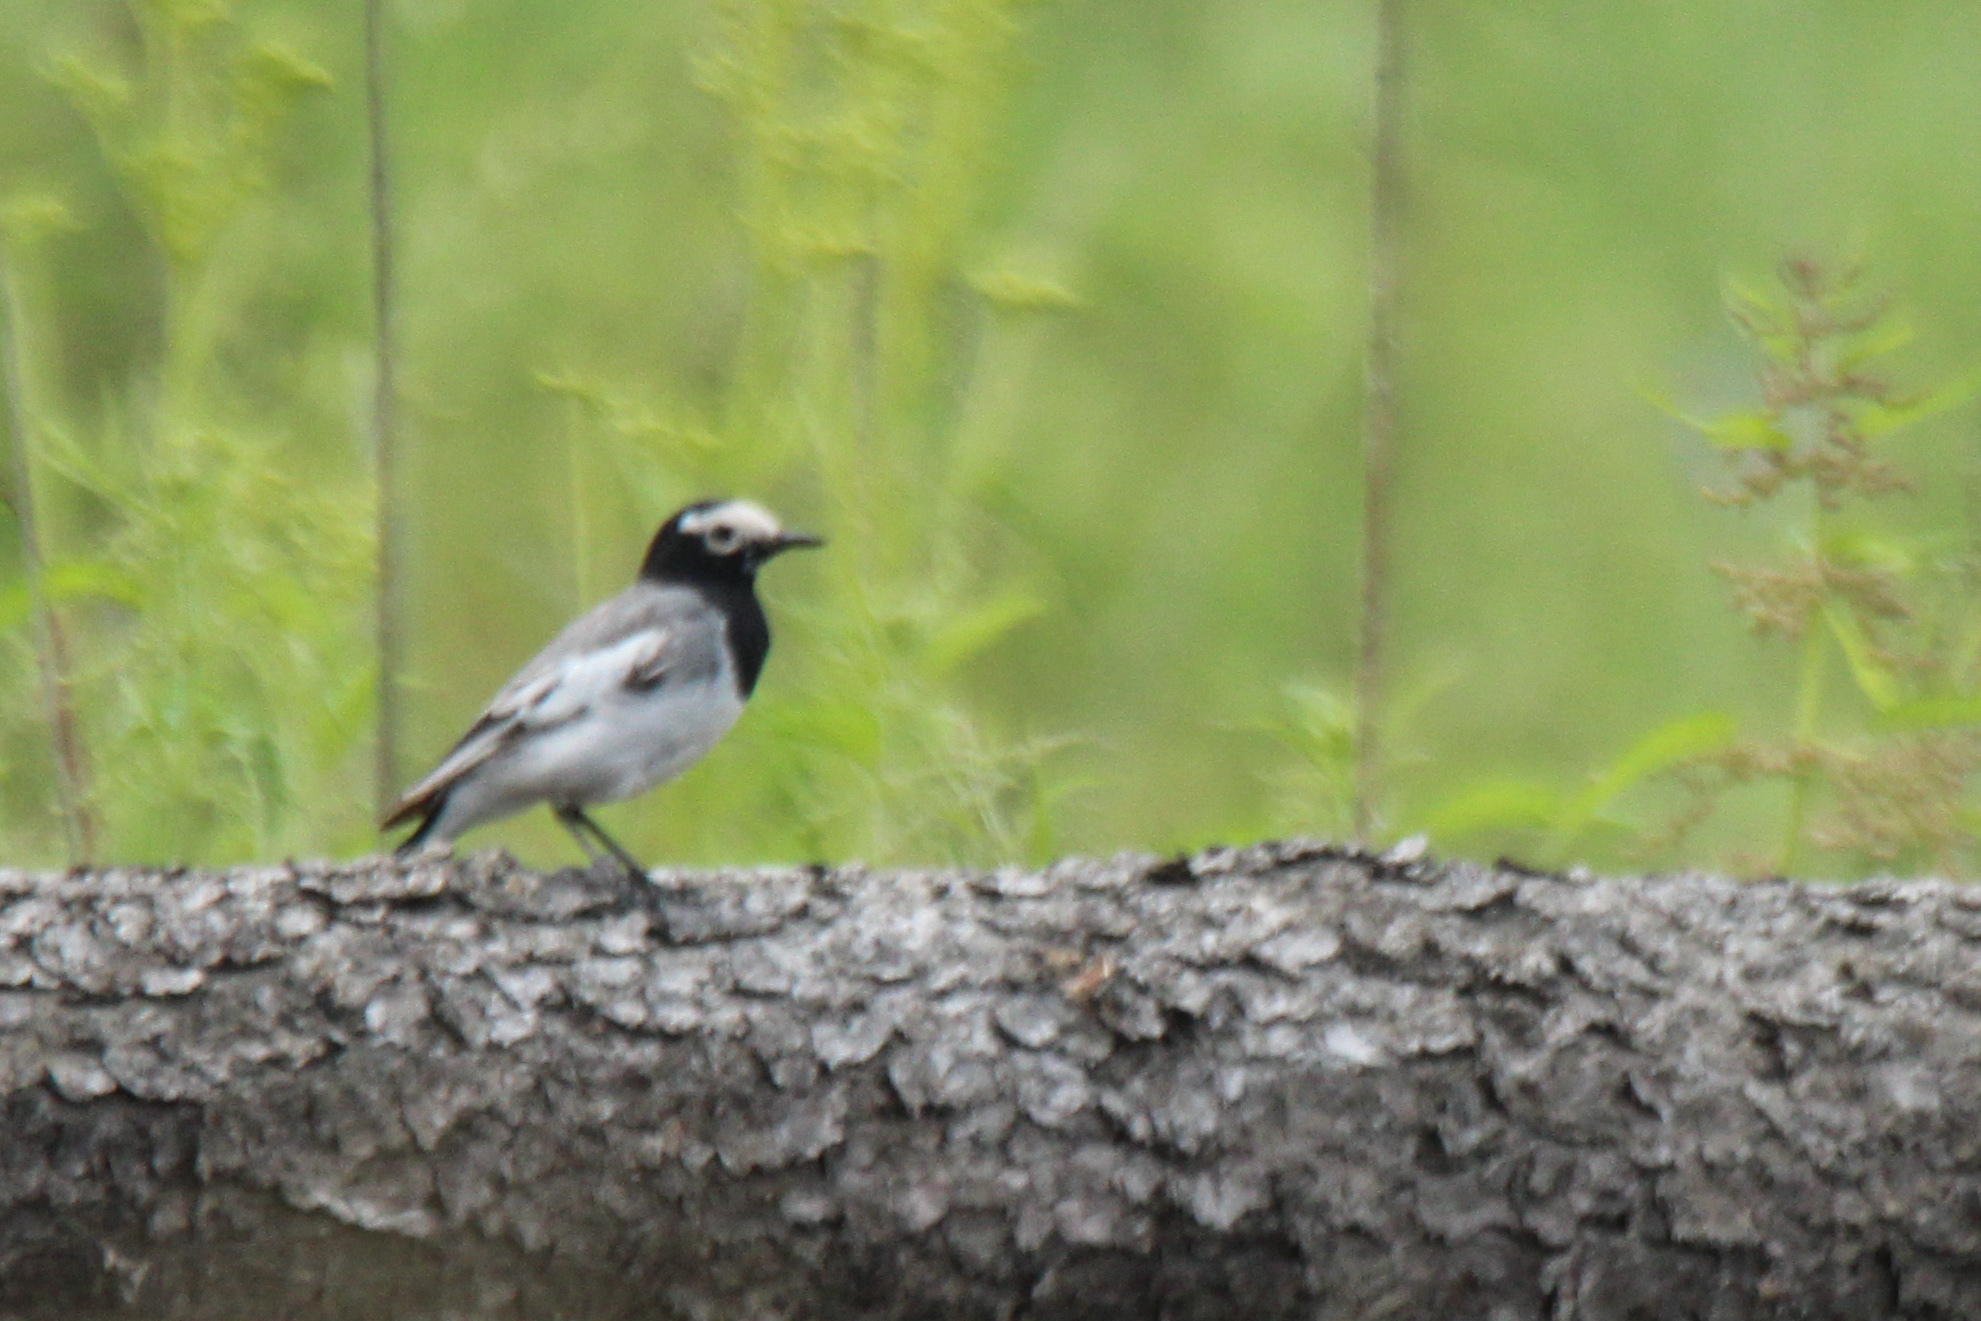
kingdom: Animalia
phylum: Chordata
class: Aves
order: Passeriformes
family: Motacillidae
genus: Motacilla
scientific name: Motacilla alba
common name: White wagtail
